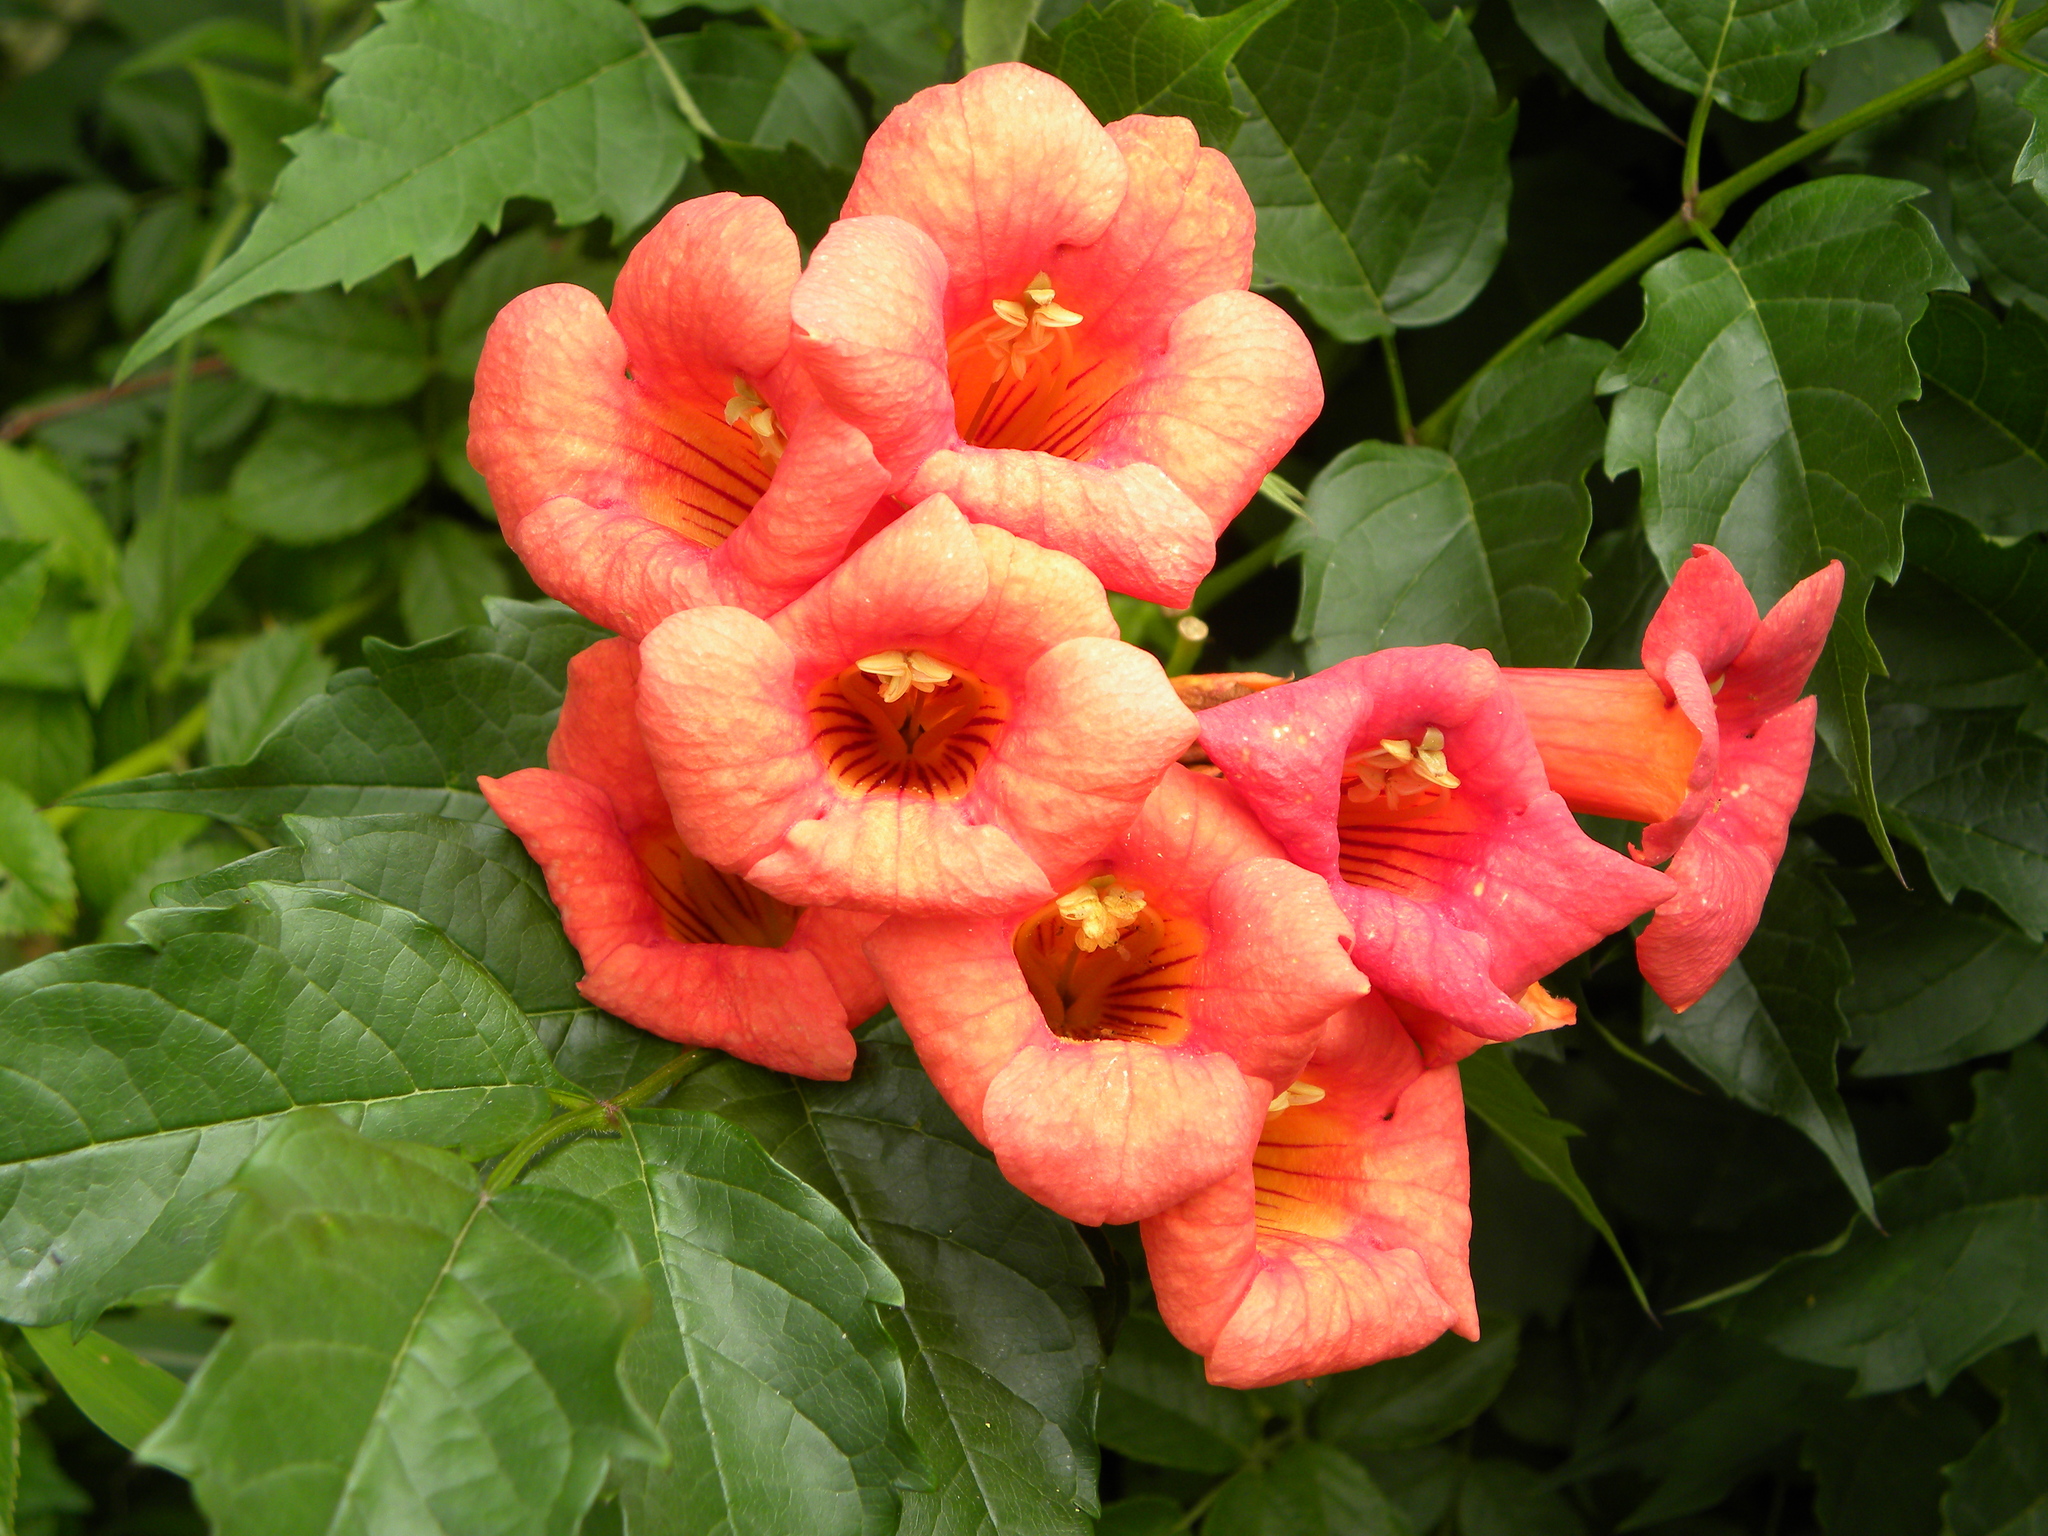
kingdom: Plantae
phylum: Tracheophyta
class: Magnoliopsida
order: Lamiales
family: Bignoniaceae
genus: Campsis
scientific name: Campsis radicans
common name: Trumpet-creeper
